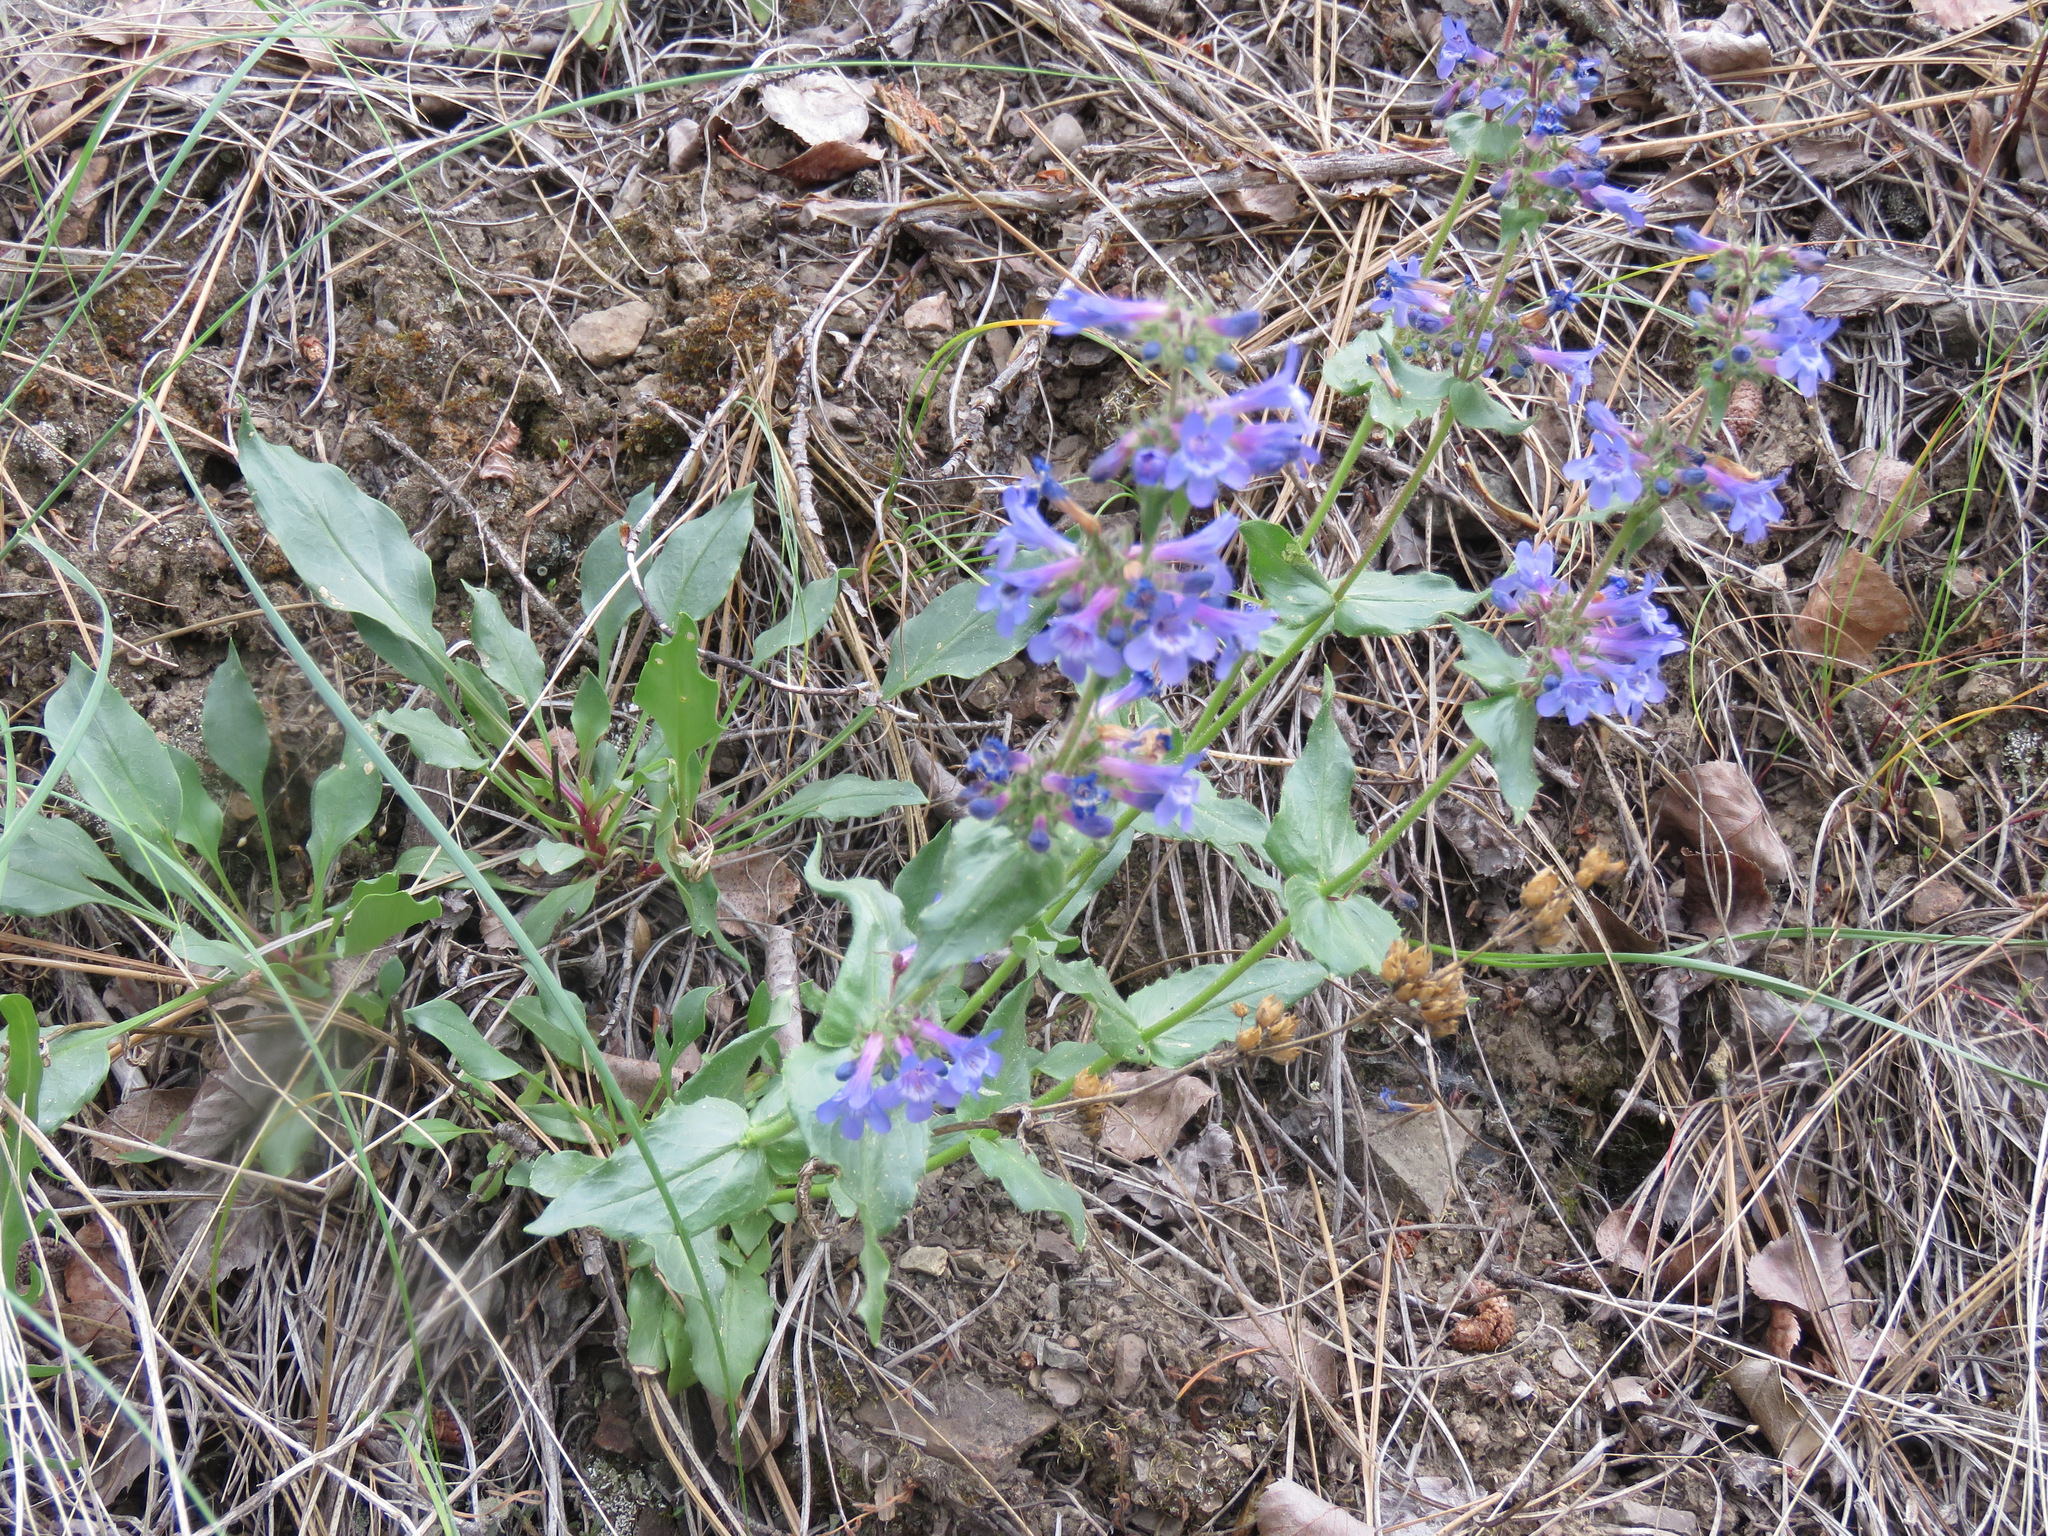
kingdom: Plantae
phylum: Tracheophyta
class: Magnoliopsida
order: Lamiales
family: Plantaginaceae
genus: Penstemon
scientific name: Penstemon pruinosus
